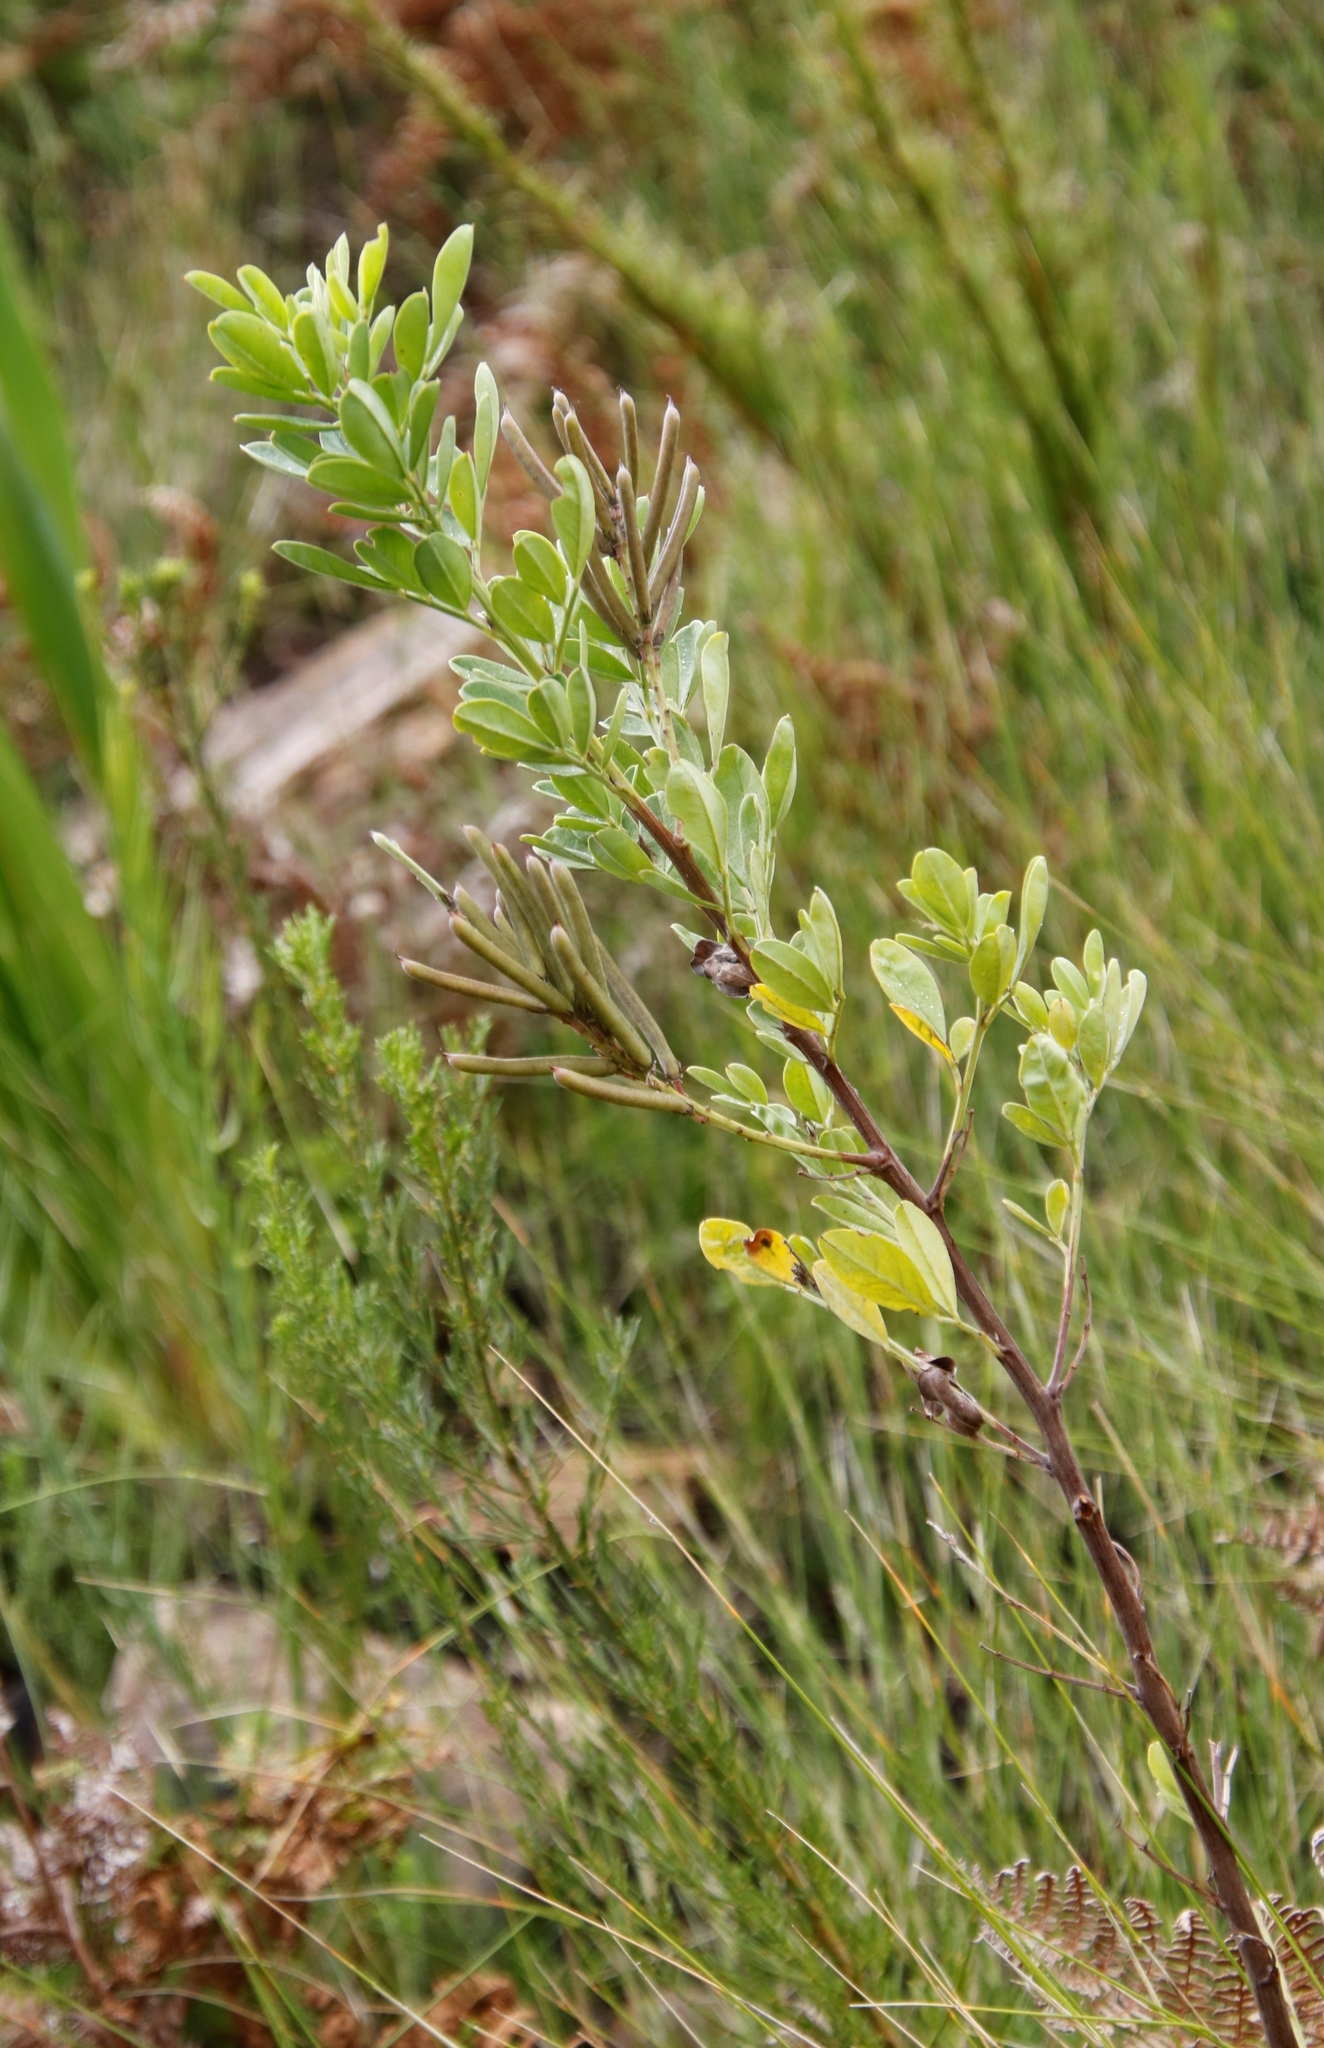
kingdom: Plantae
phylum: Tracheophyta
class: Magnoliopsida
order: Fabales
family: Fabaceae
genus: Indigofera
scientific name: Indigofera cytisoides
